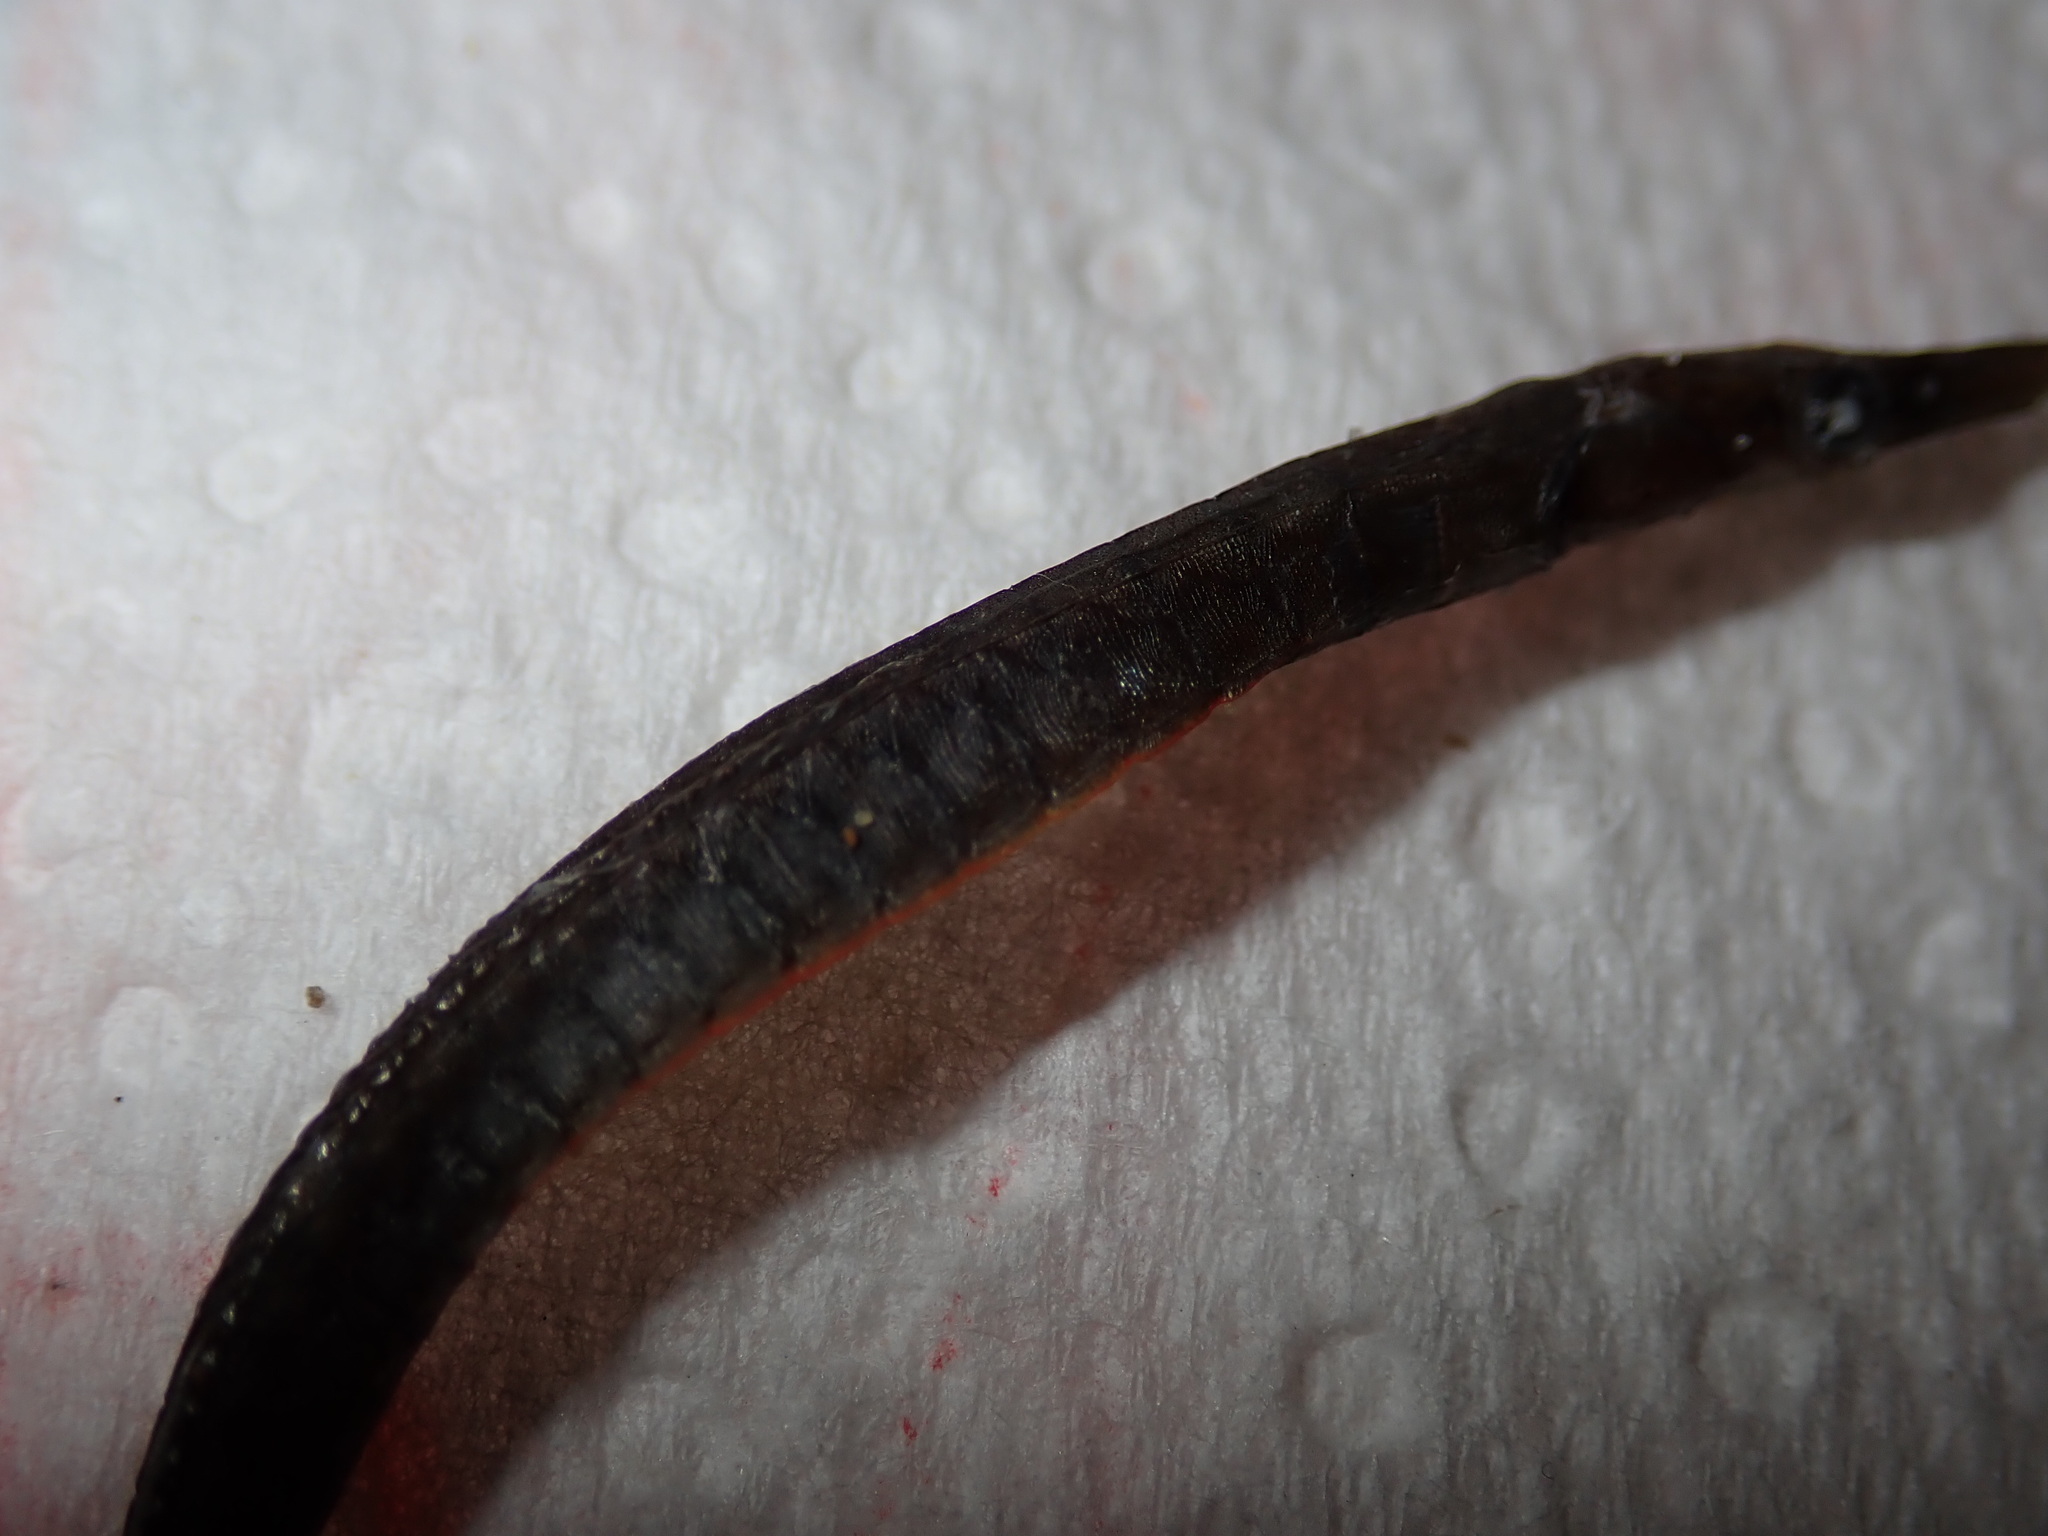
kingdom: Animalia
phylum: Chordata
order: Syngnathiformes
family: Syngnathidae
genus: Stigmatopora
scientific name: Stigmatopora nigra
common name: Black pipefish
